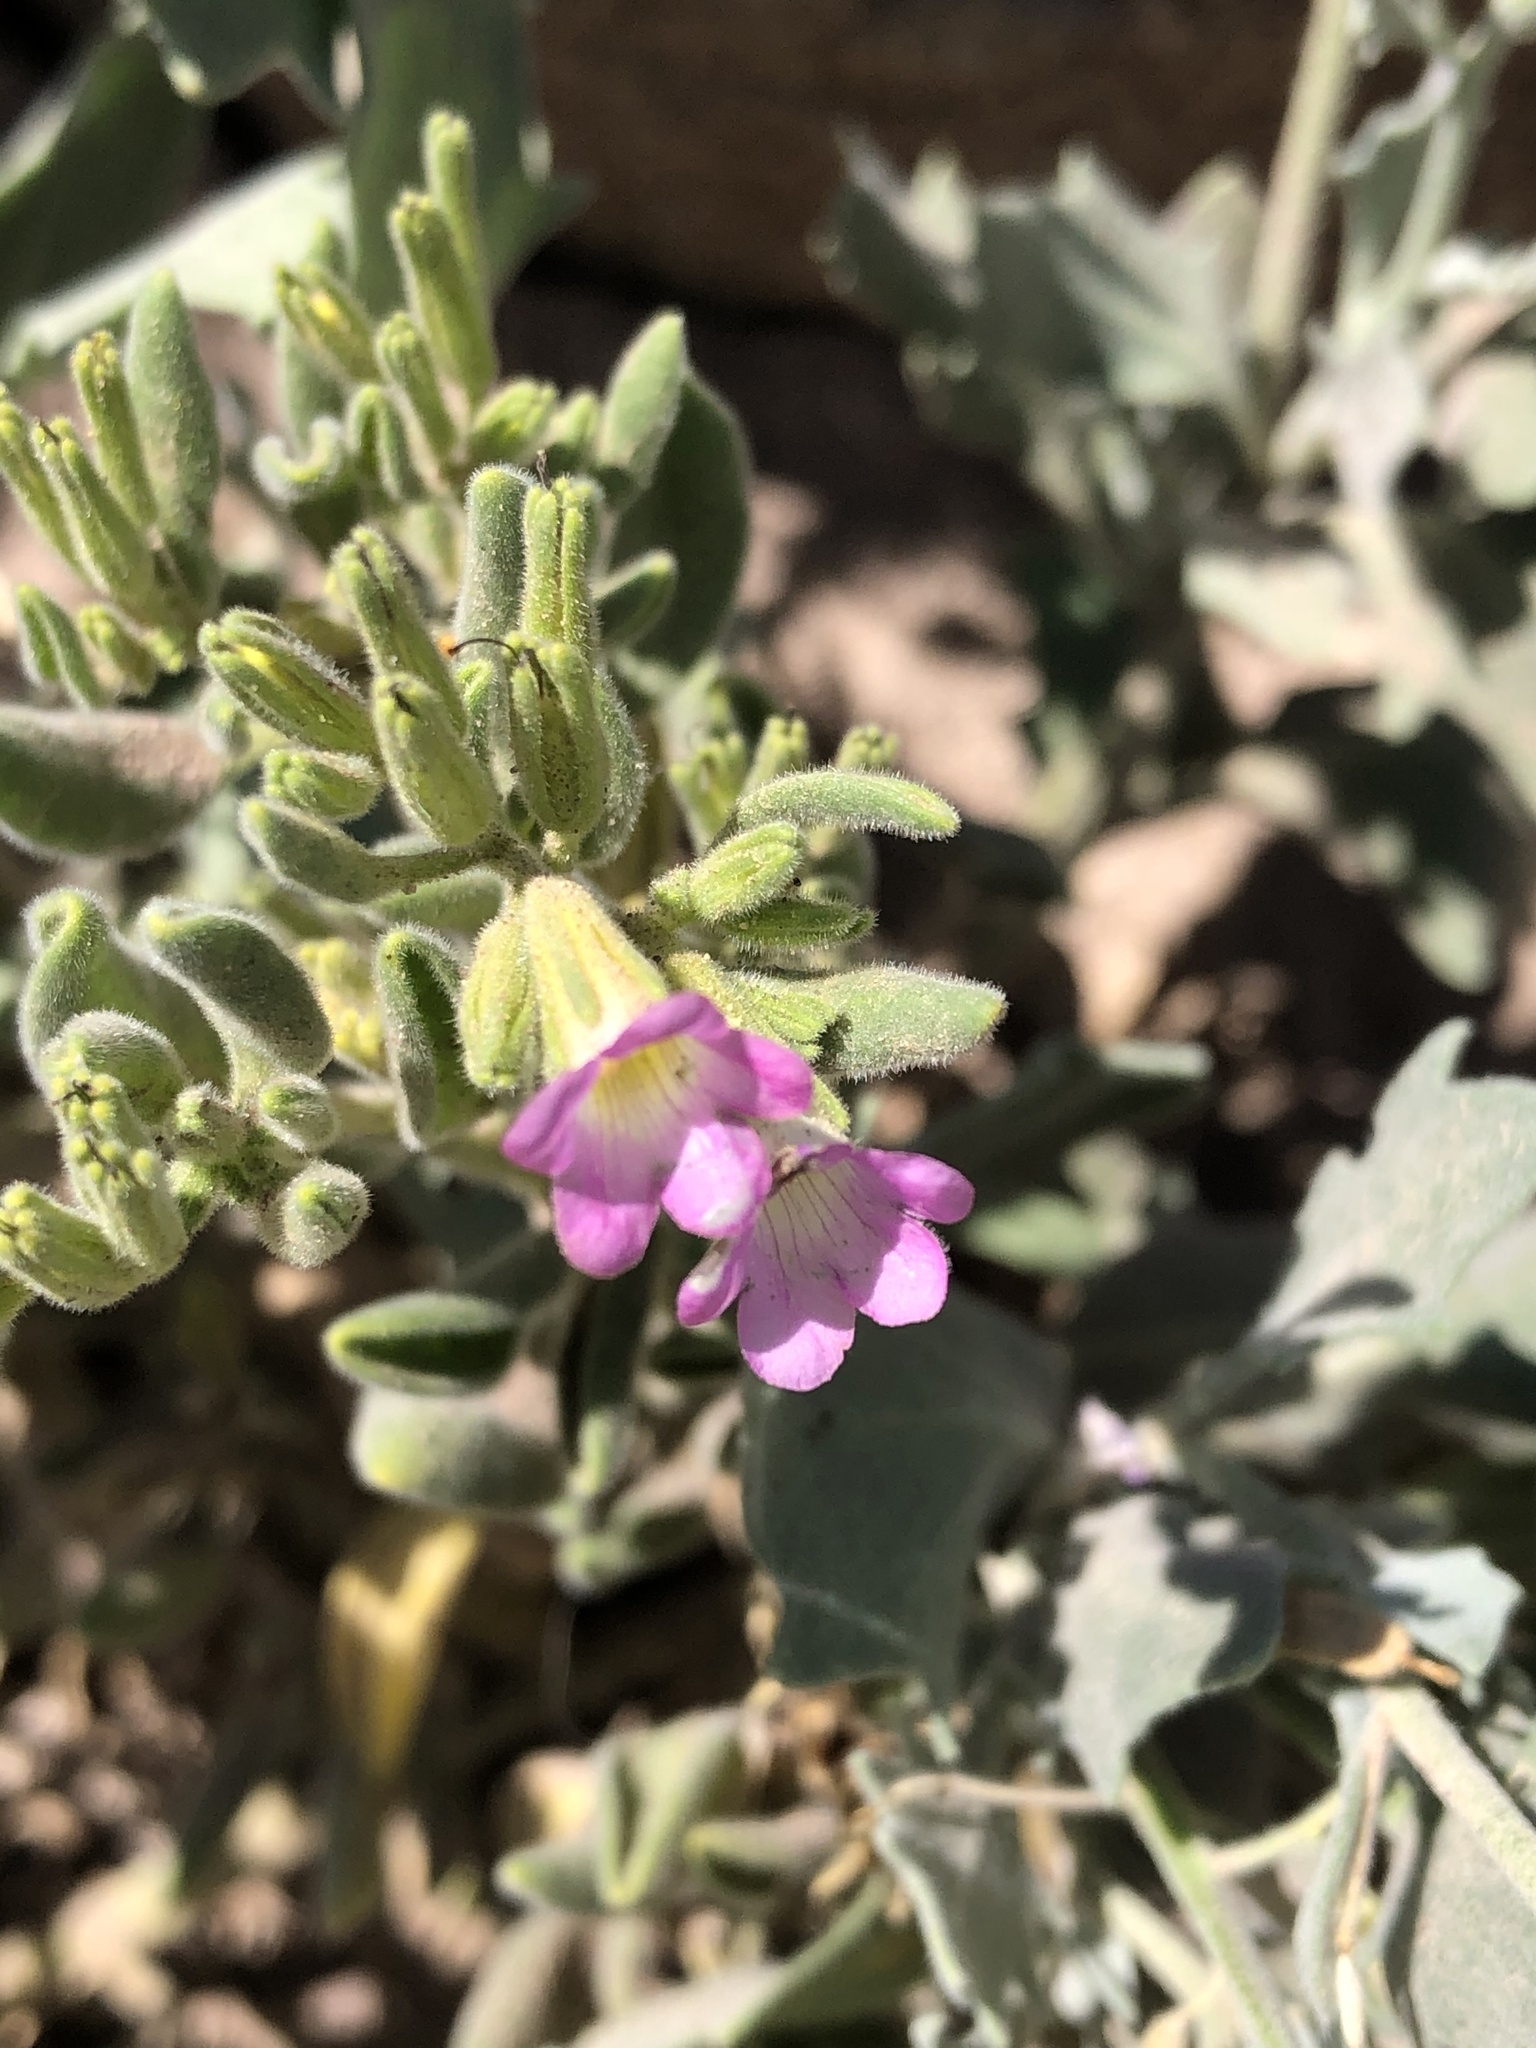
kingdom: Plantae
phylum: Tracheophyta
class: Magnoliopsida
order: Boraginales
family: Namaceae
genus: Nama
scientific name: Nama hispida
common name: Bristly nama
